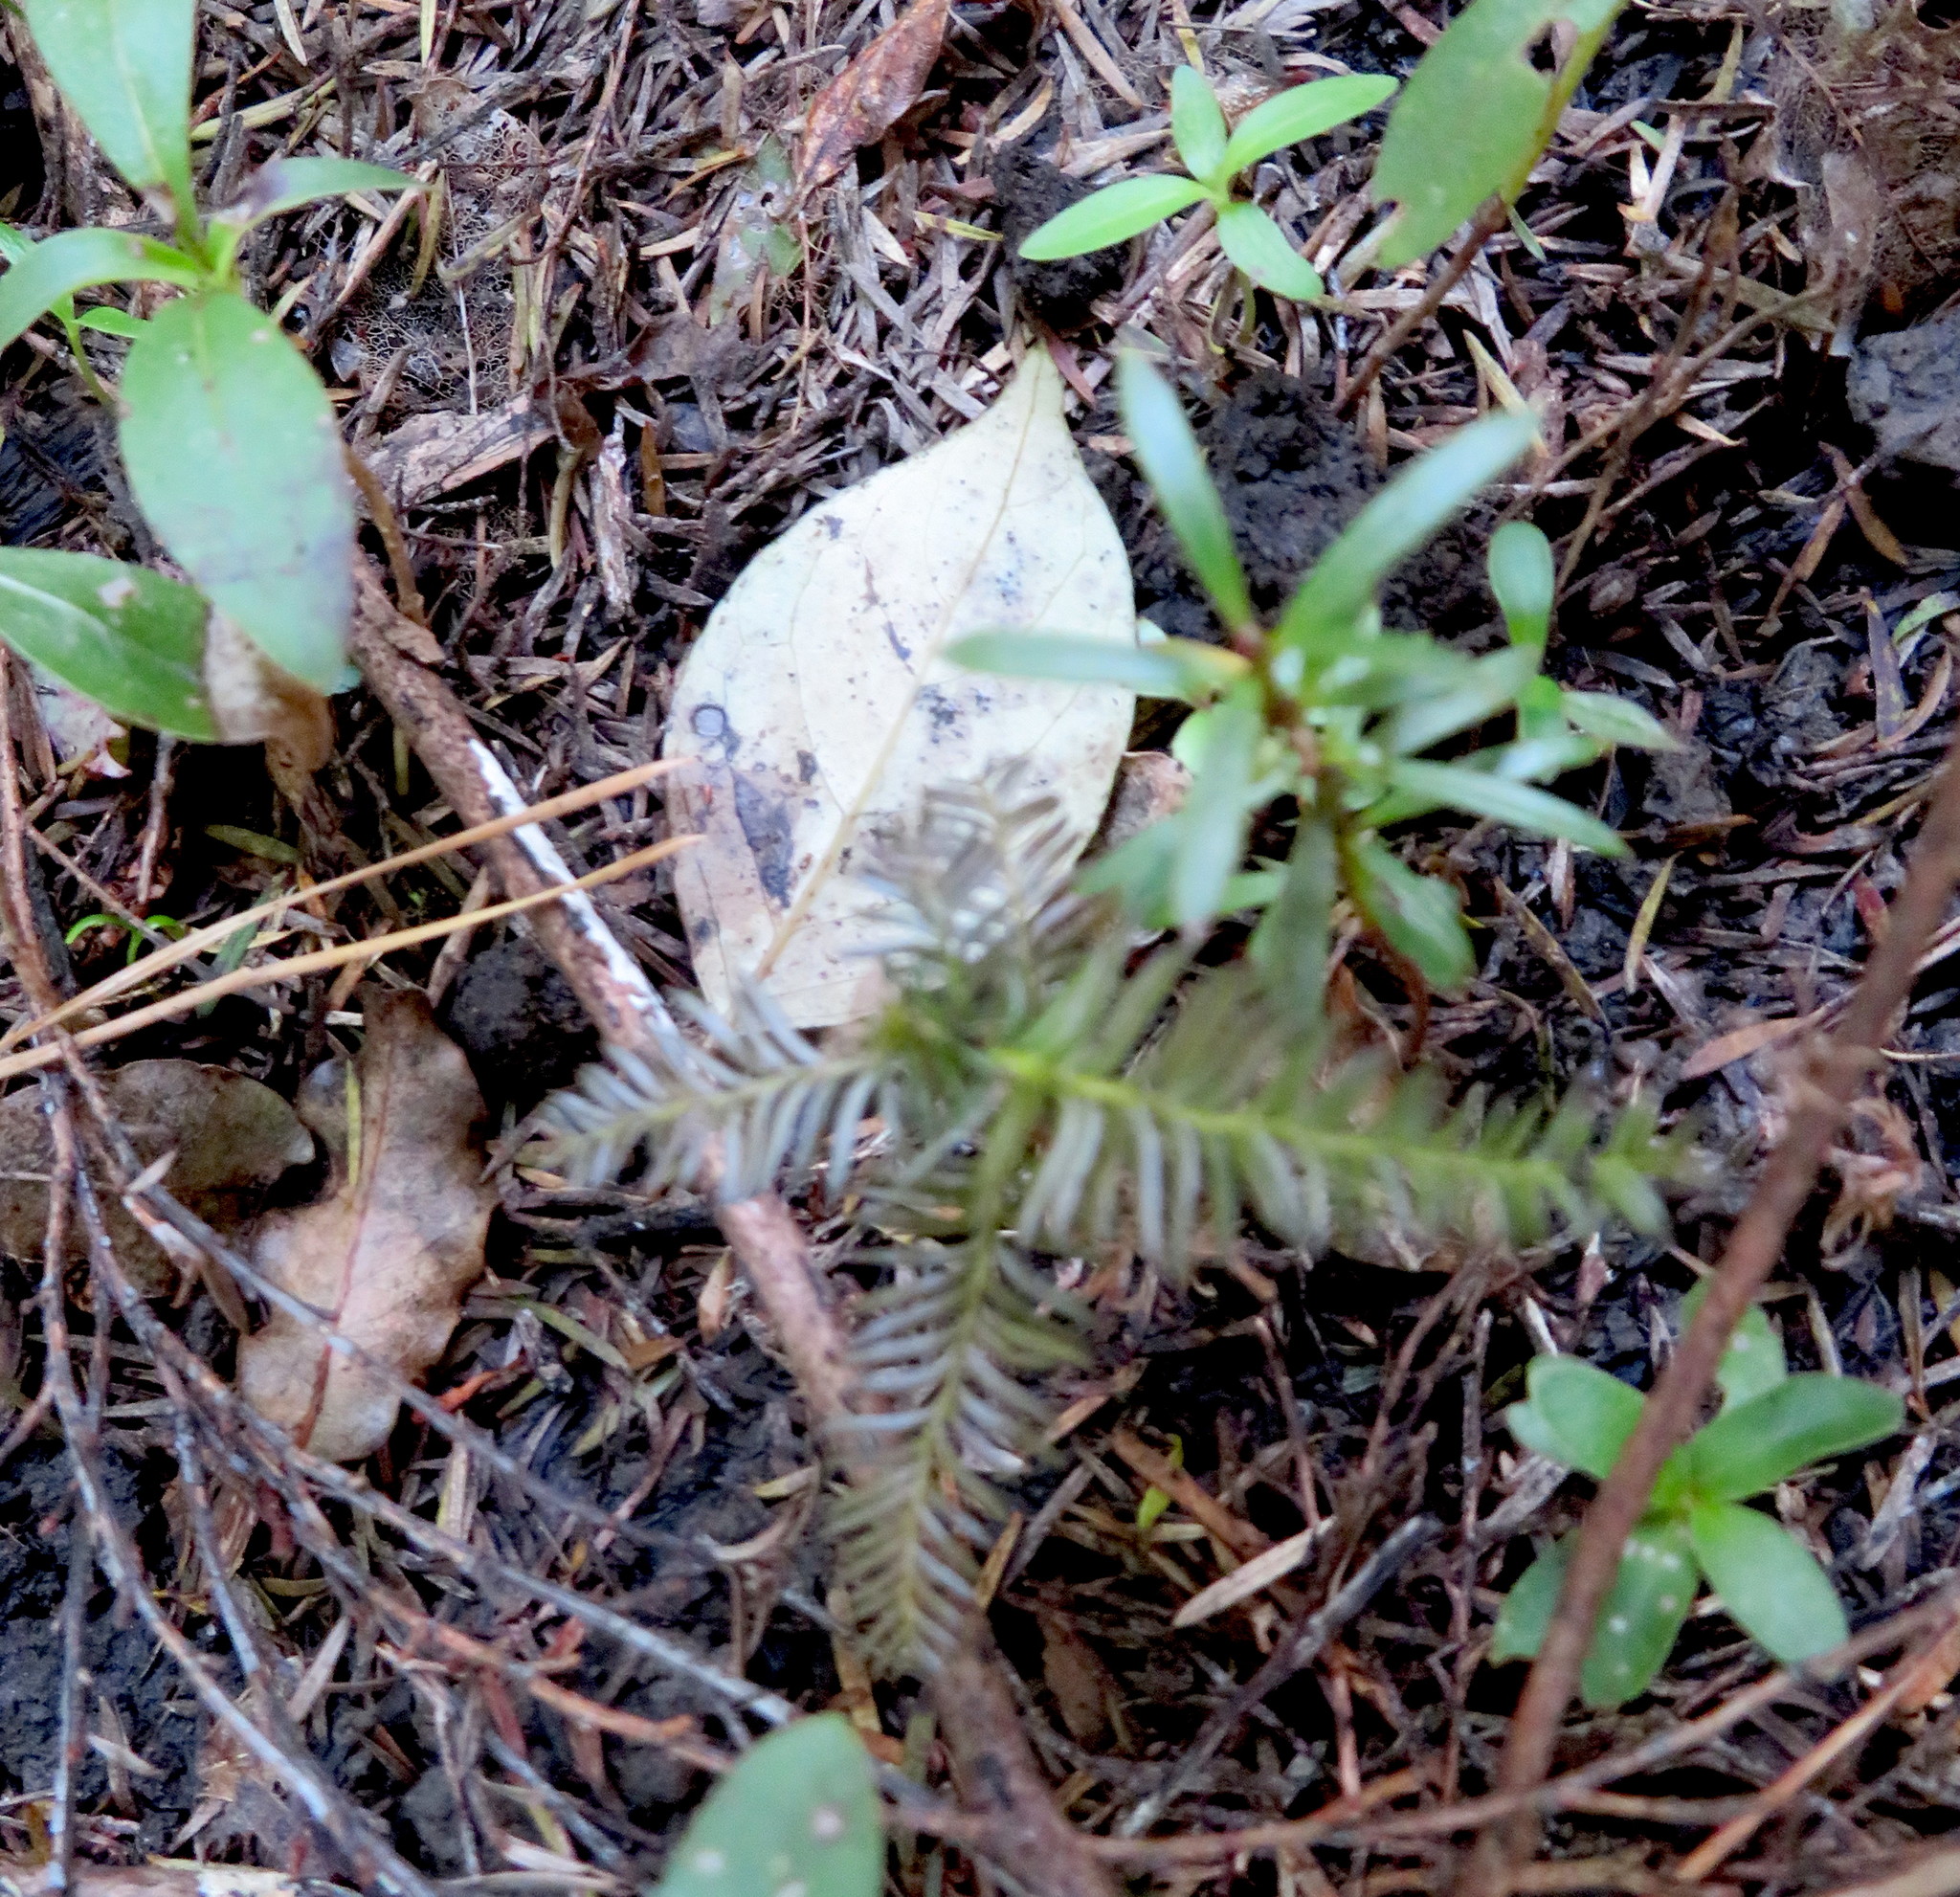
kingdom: Plantae
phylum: Tracheophyta
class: Pinopsida
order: Pinales
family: Podocarpaceae
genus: Dacrycarpus
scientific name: Dacrycarpus dacrydioides
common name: White pine
